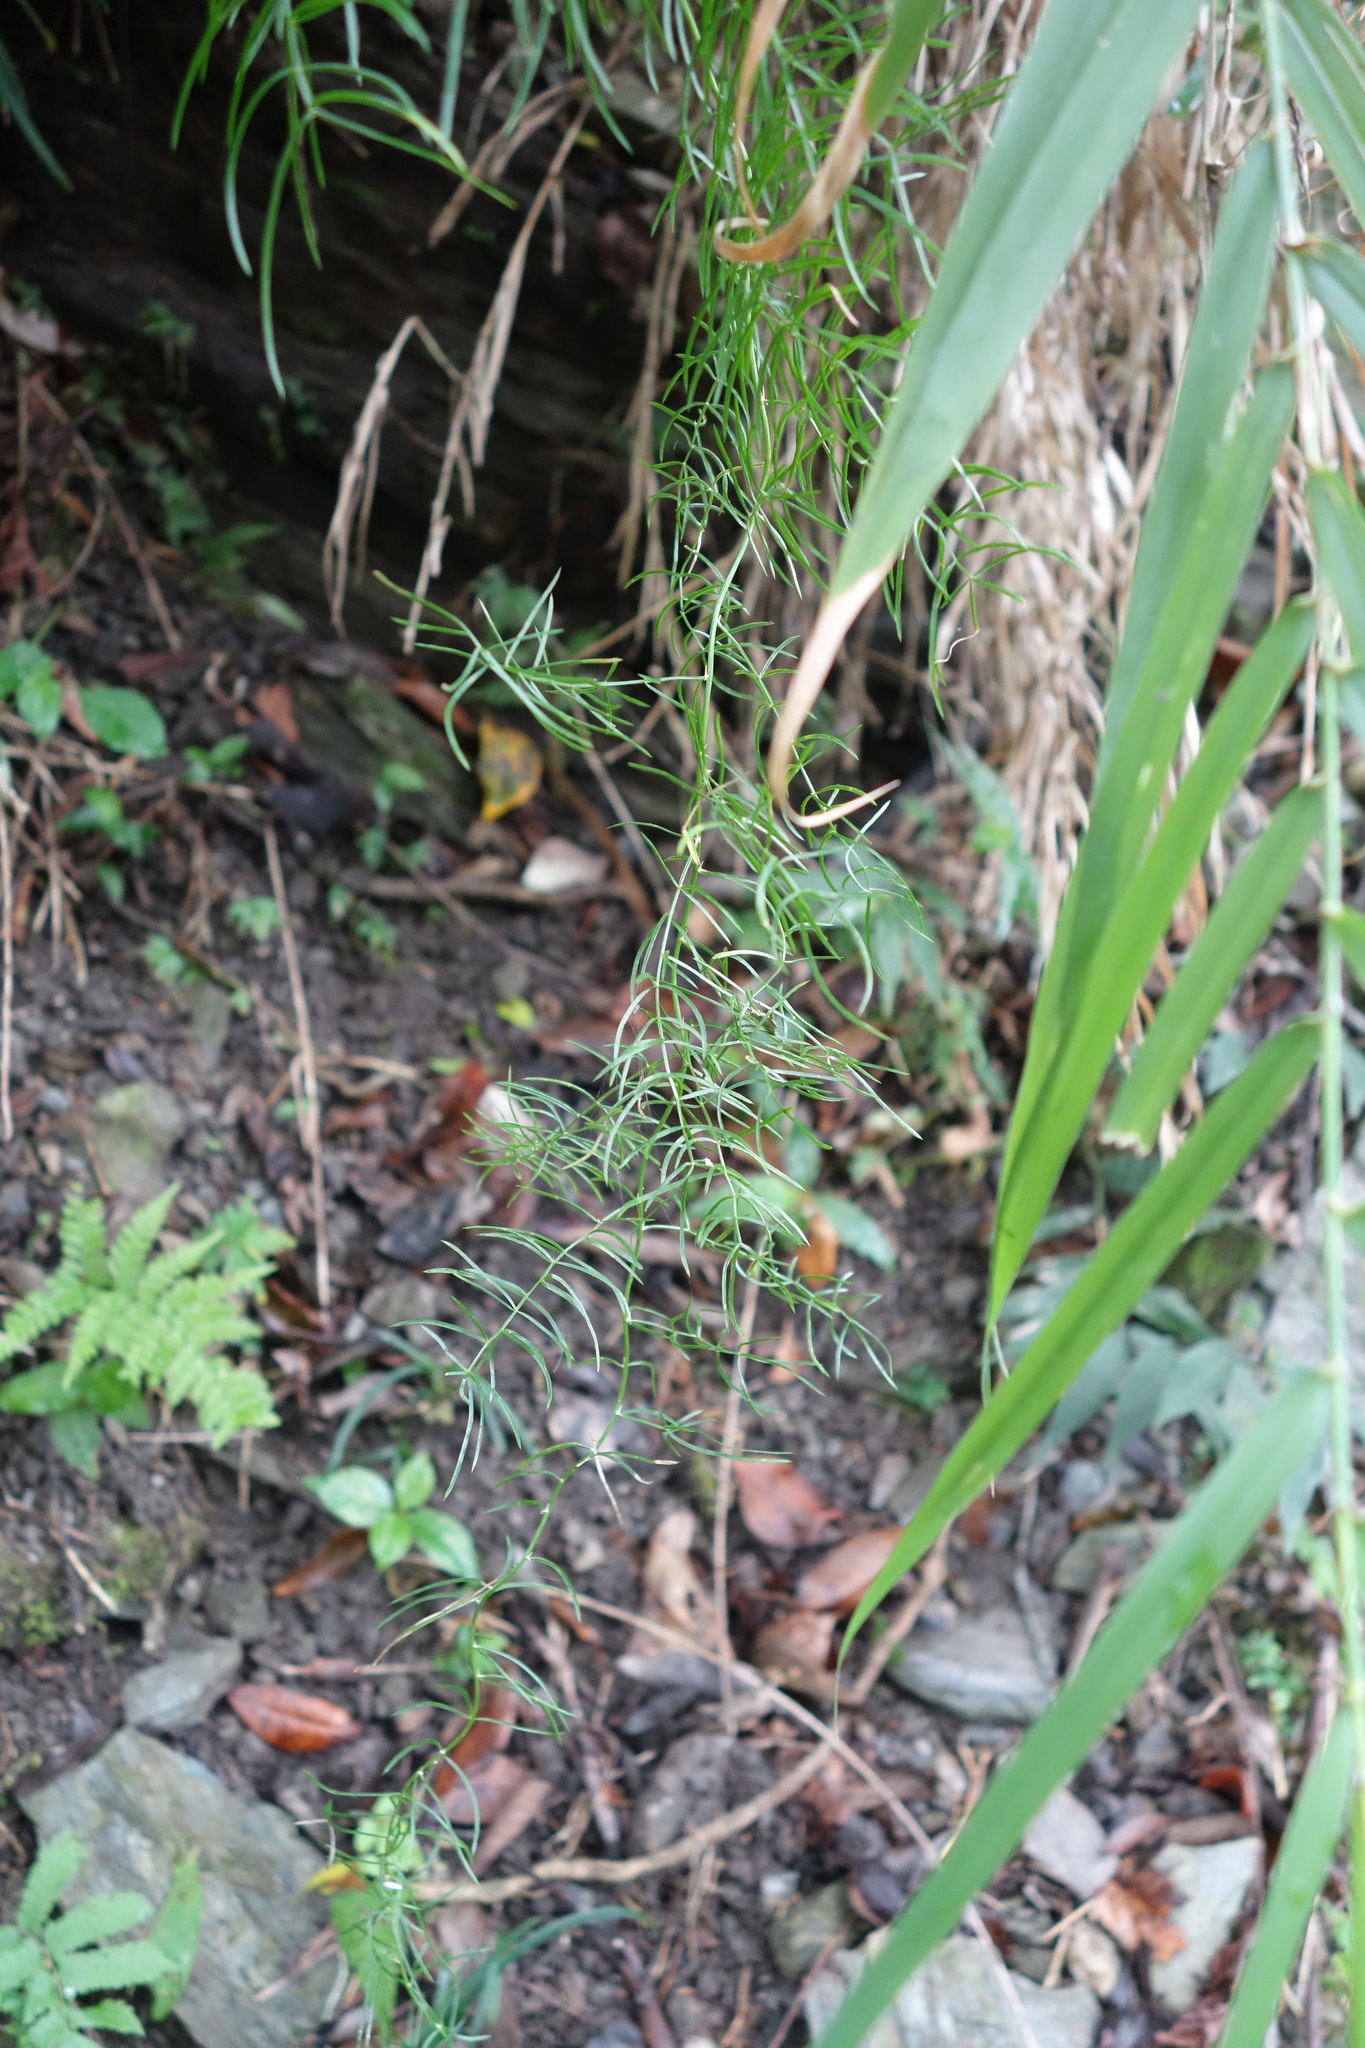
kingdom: Plantae
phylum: Tracheophyta
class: Liliopsida
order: Asparagales
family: Asparagaceae
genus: Asparagus
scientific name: Asparagus cochinchinensis
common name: Chinese asparagus
